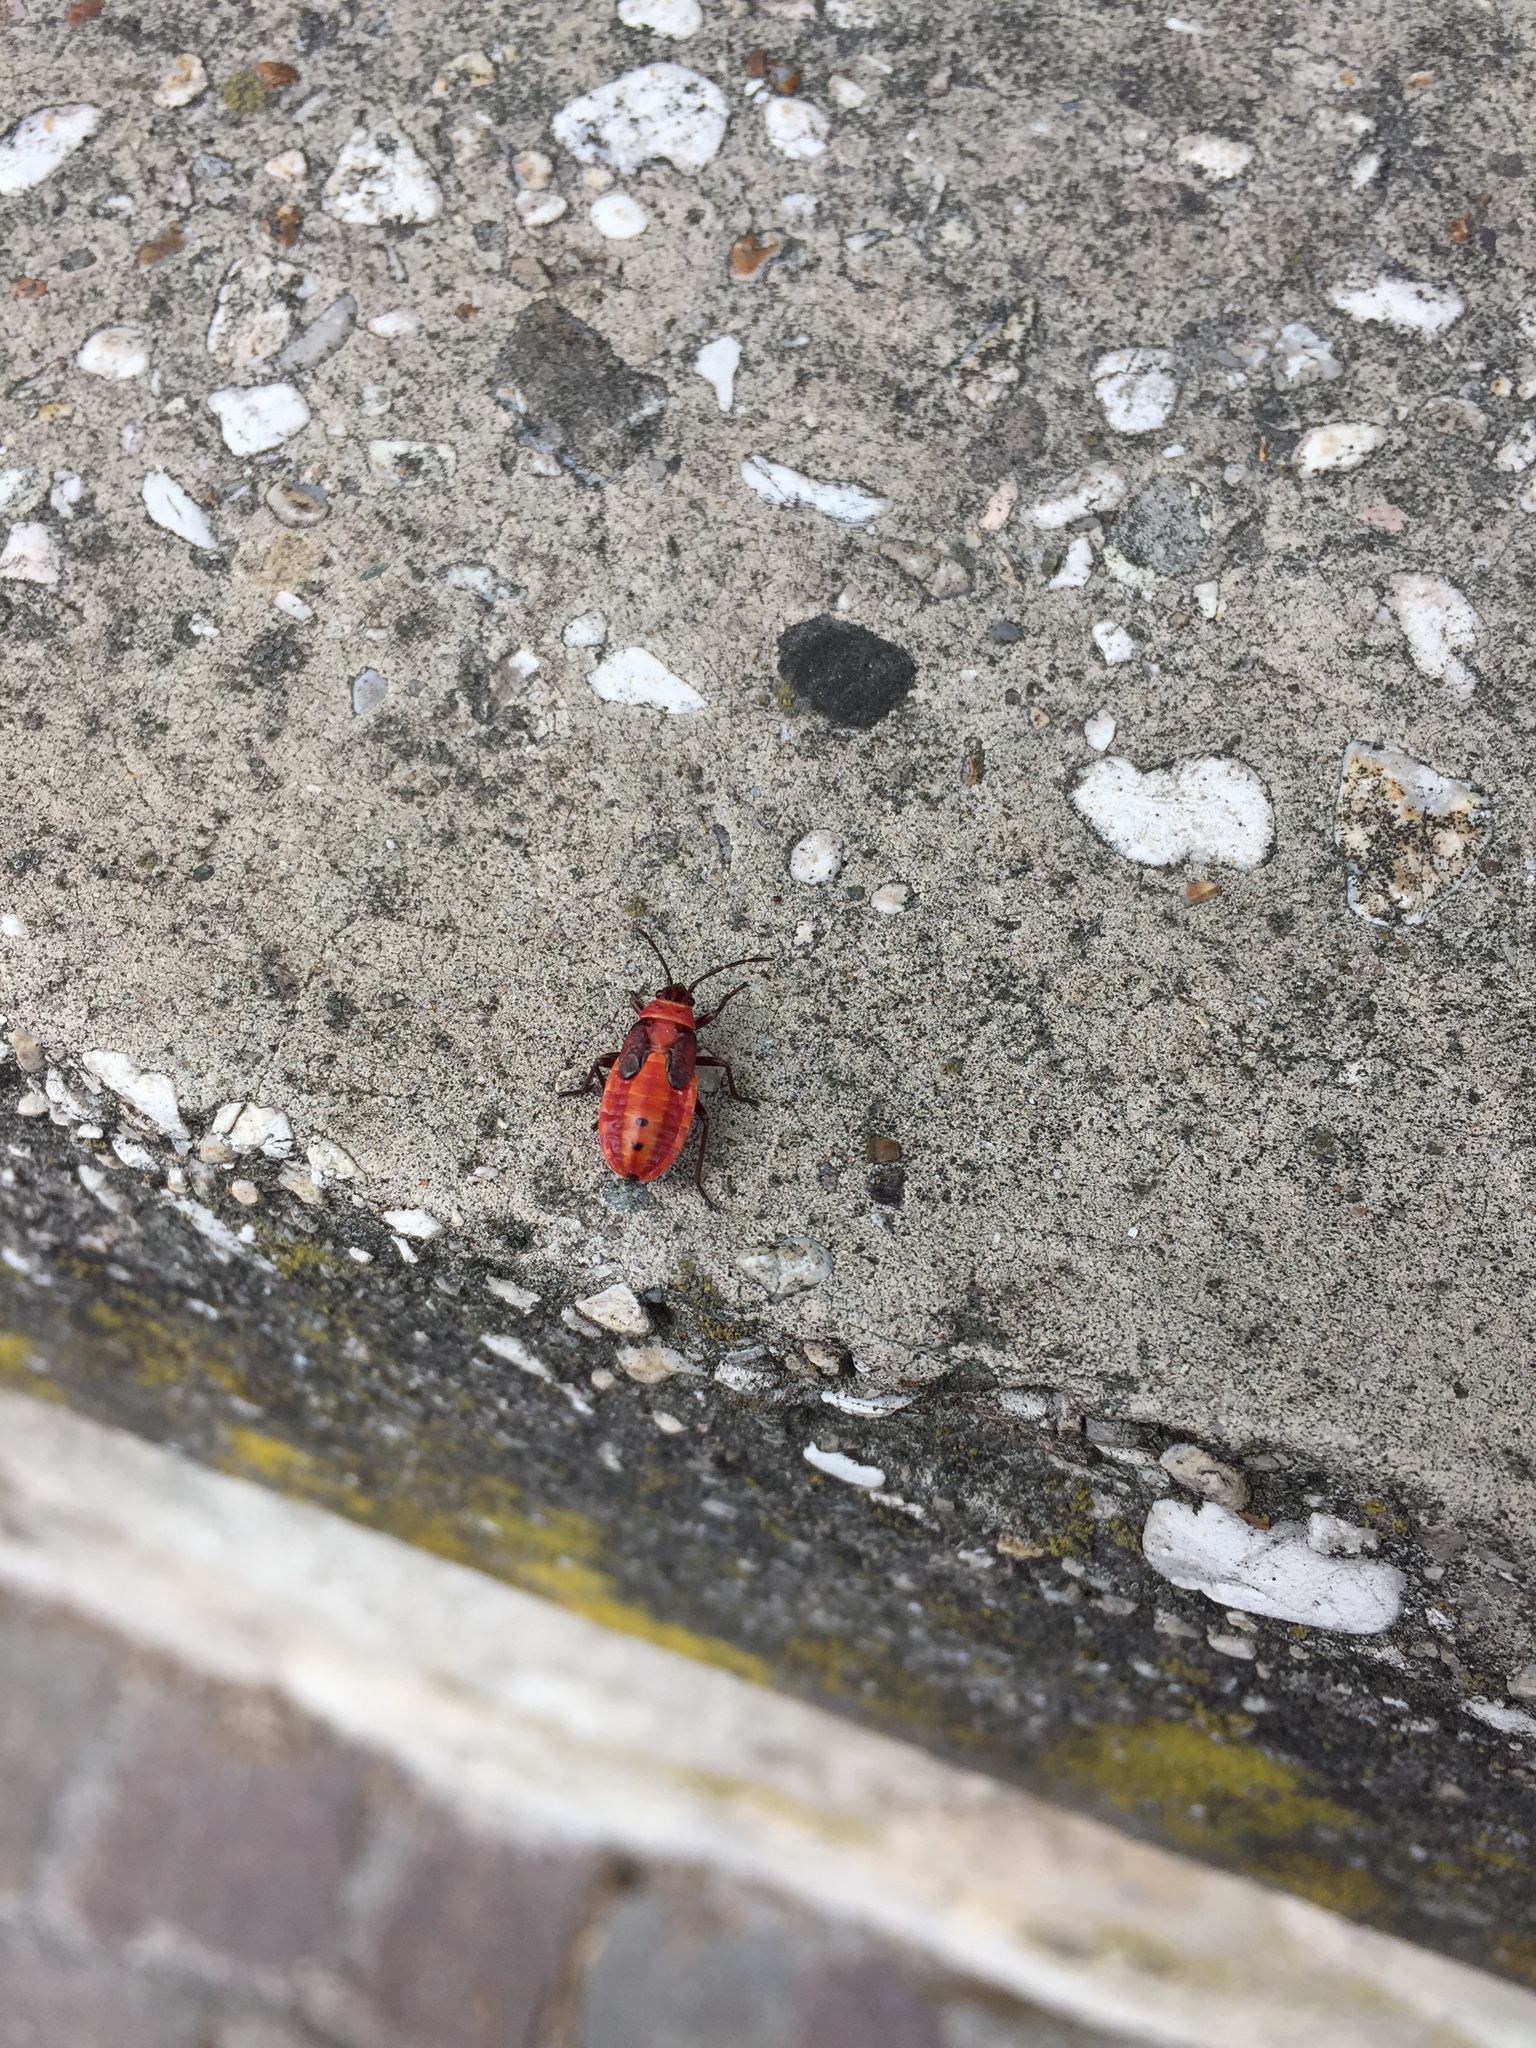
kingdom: Animalia
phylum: Arthropoda
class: Insecta
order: Hemiptera
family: Pyrrhocoridae
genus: Pyrrhocoris
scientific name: Pyrrhocoris apterus
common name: Firebug
